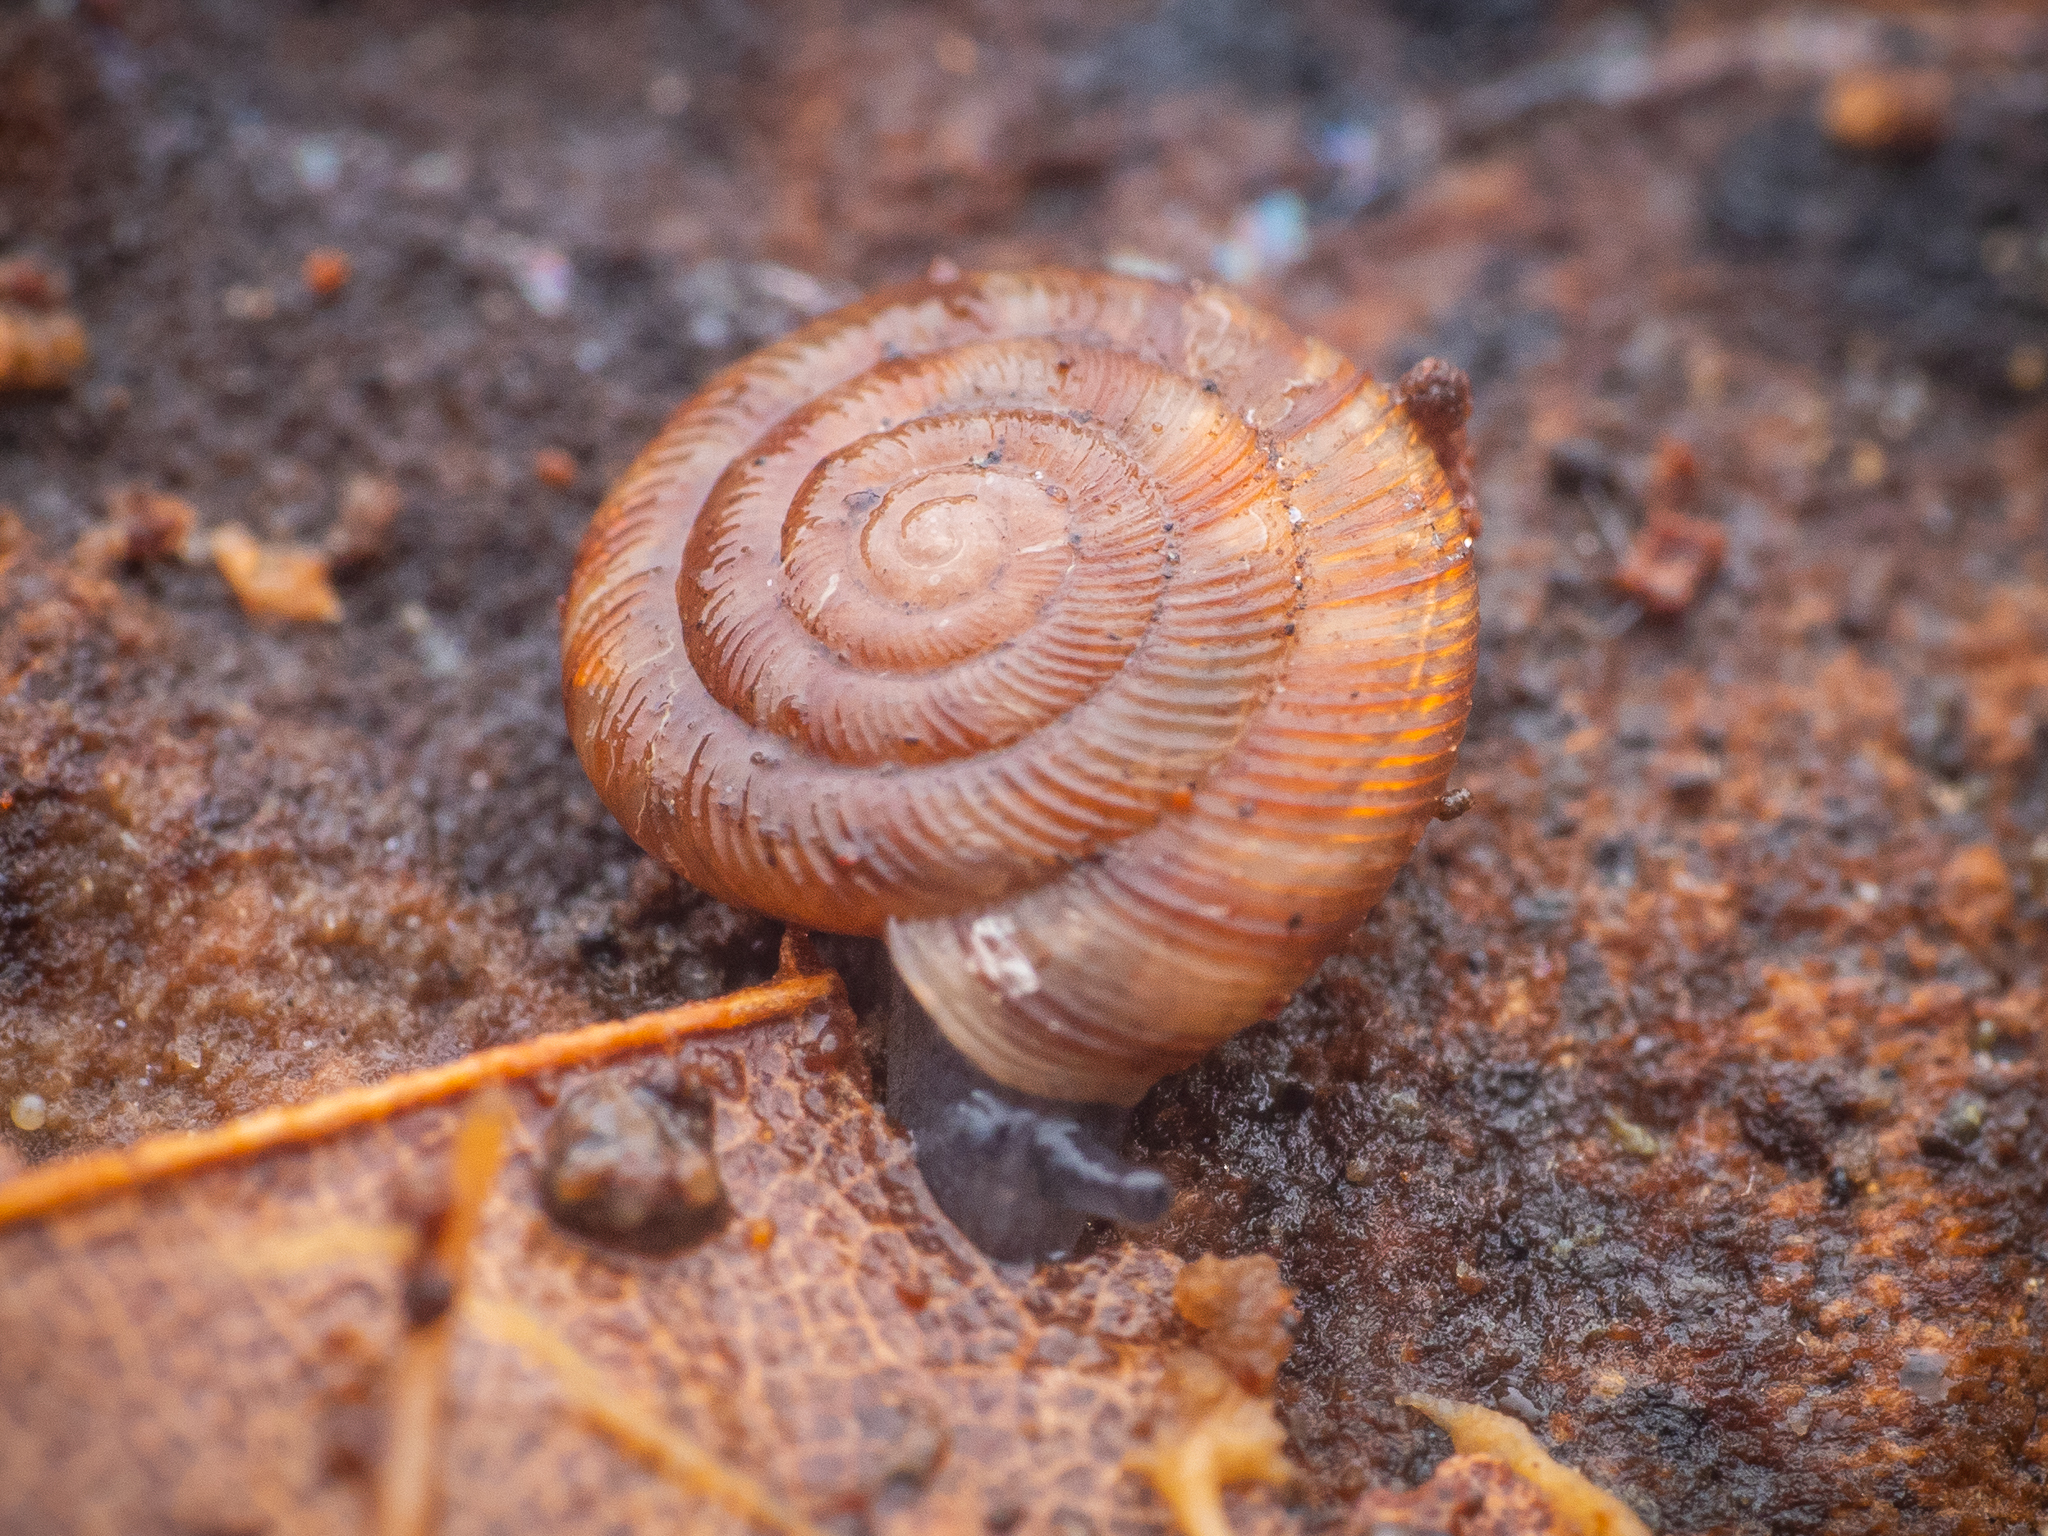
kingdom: Animalia
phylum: Mollusca
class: Gastropoda
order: Stylommatophora
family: Discidae
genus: Discus
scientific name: Discus rotundatus
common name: Rounded snail
